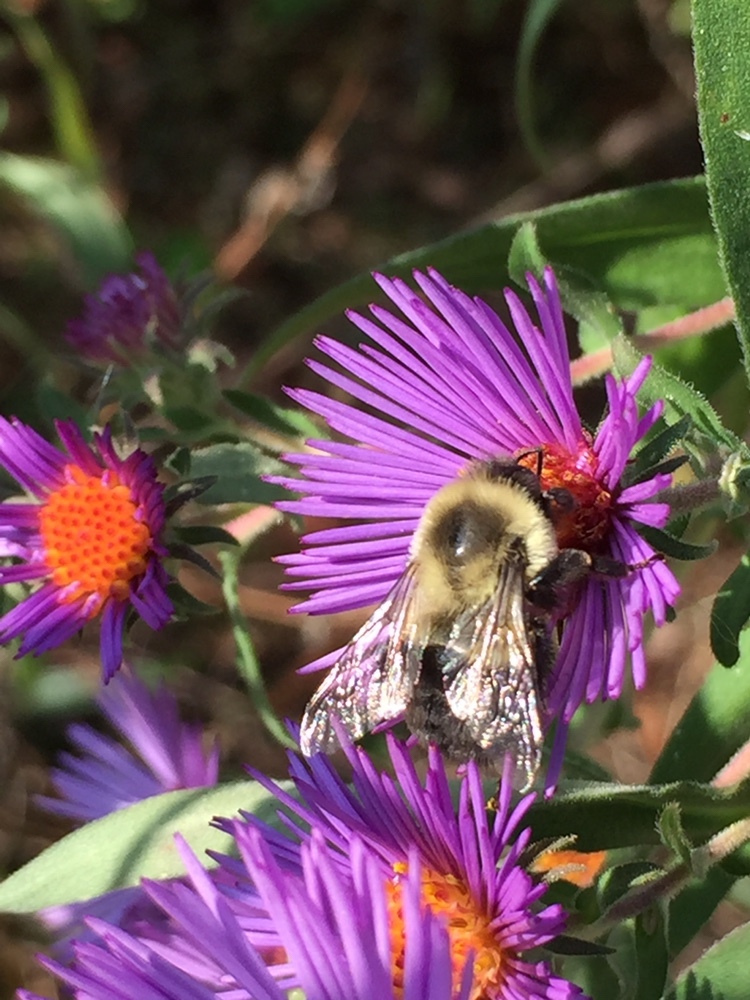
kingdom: Animalia
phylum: Arthropoda
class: Insecta
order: Hymenoptera
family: Apidae
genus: Bombus
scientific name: Bombus impatiens
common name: Common eastern bumble bee
